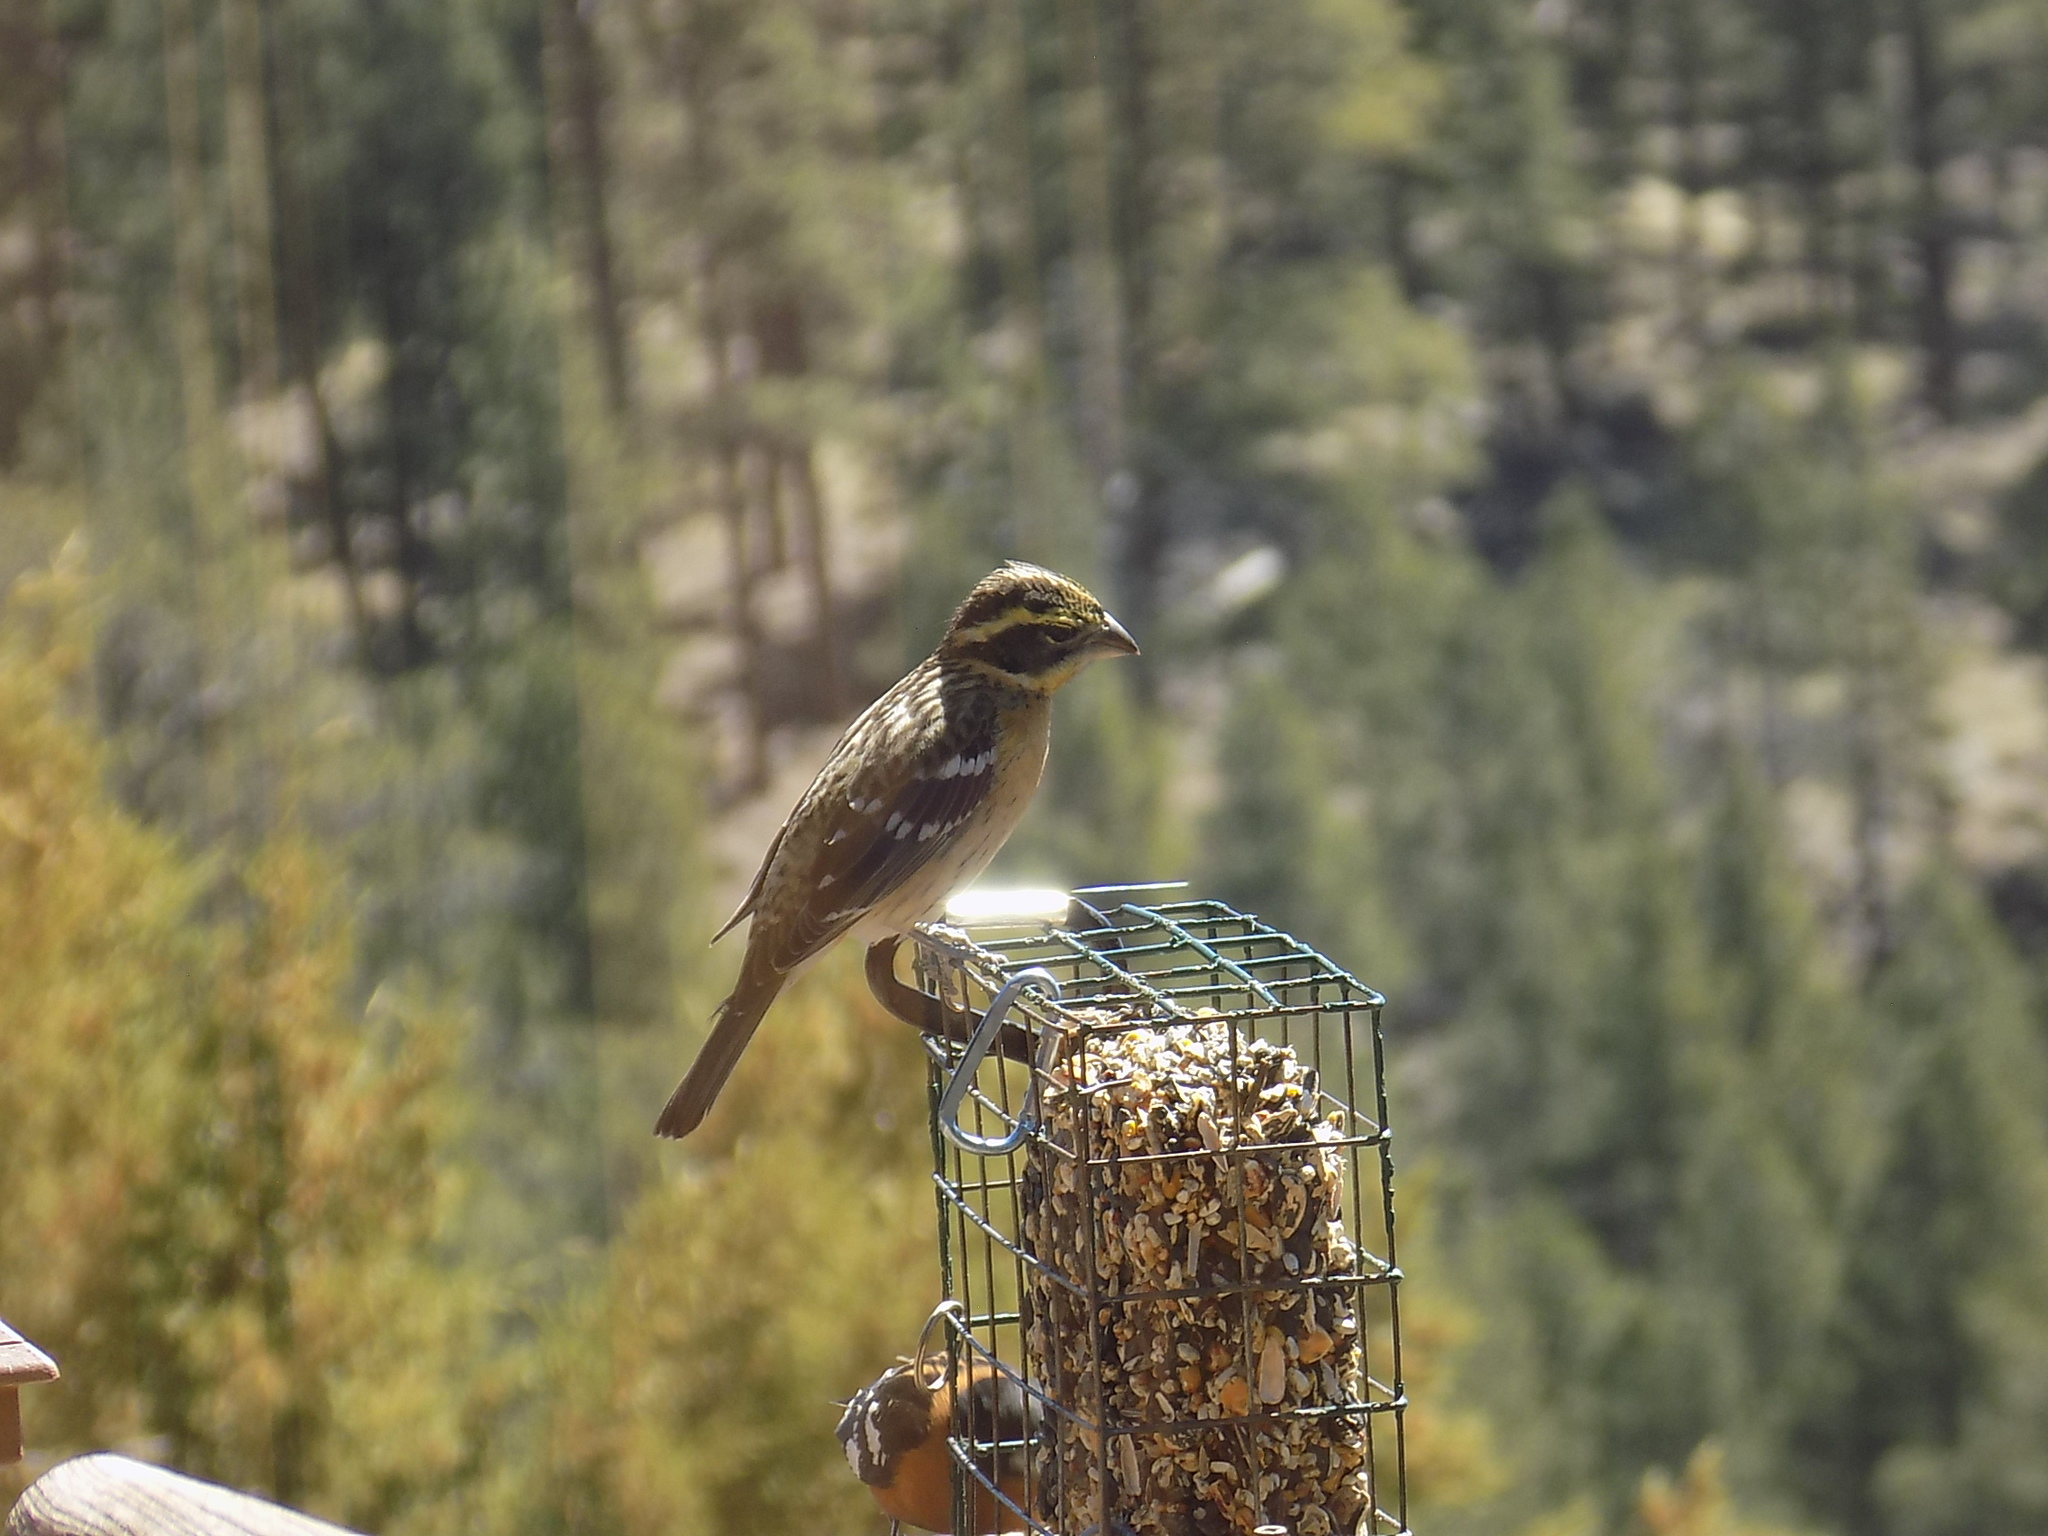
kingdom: Animalia
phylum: Chordata
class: Aves
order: Passeriformes
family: Cardinalidae
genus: Pheucticus
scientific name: Pheucticus melanocephalus
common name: Black-headed grosbeak
